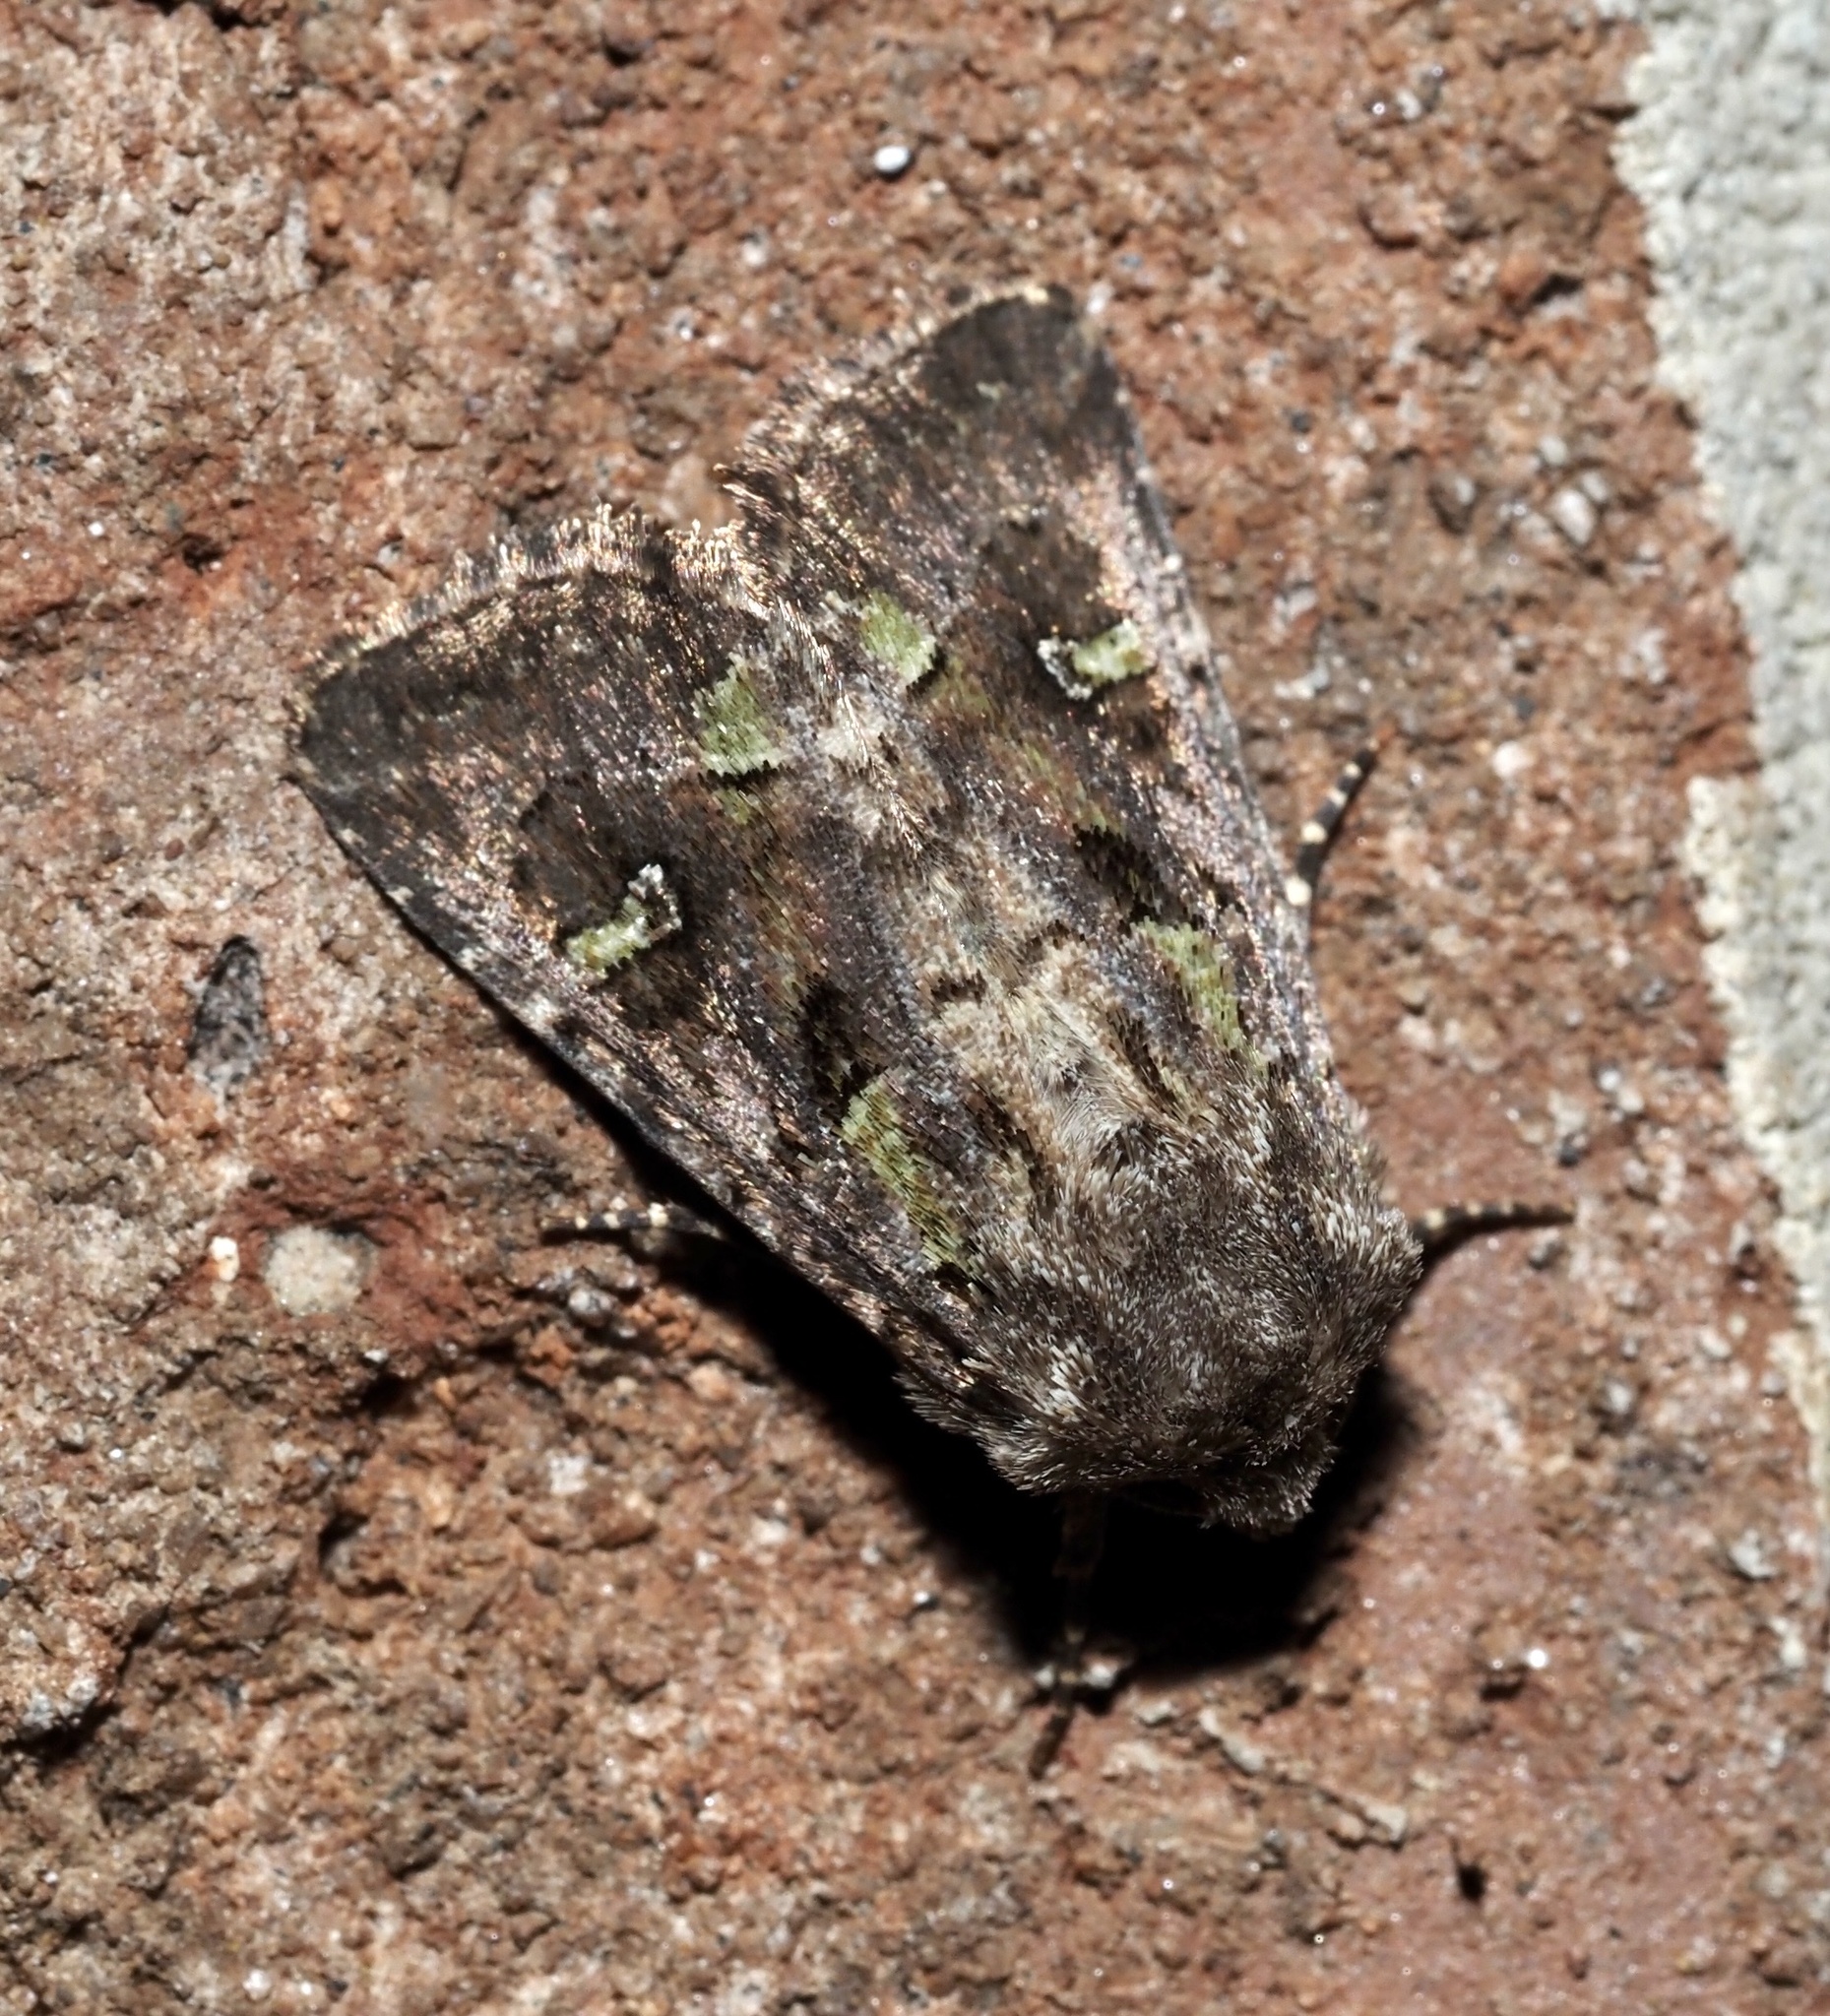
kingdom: Animalia
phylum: Arthropoda
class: Insecta
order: Lepidoptera
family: Noctuidae
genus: Lacinipolia
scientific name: Lacinipolia renigera
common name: Kidney-spotted minor
